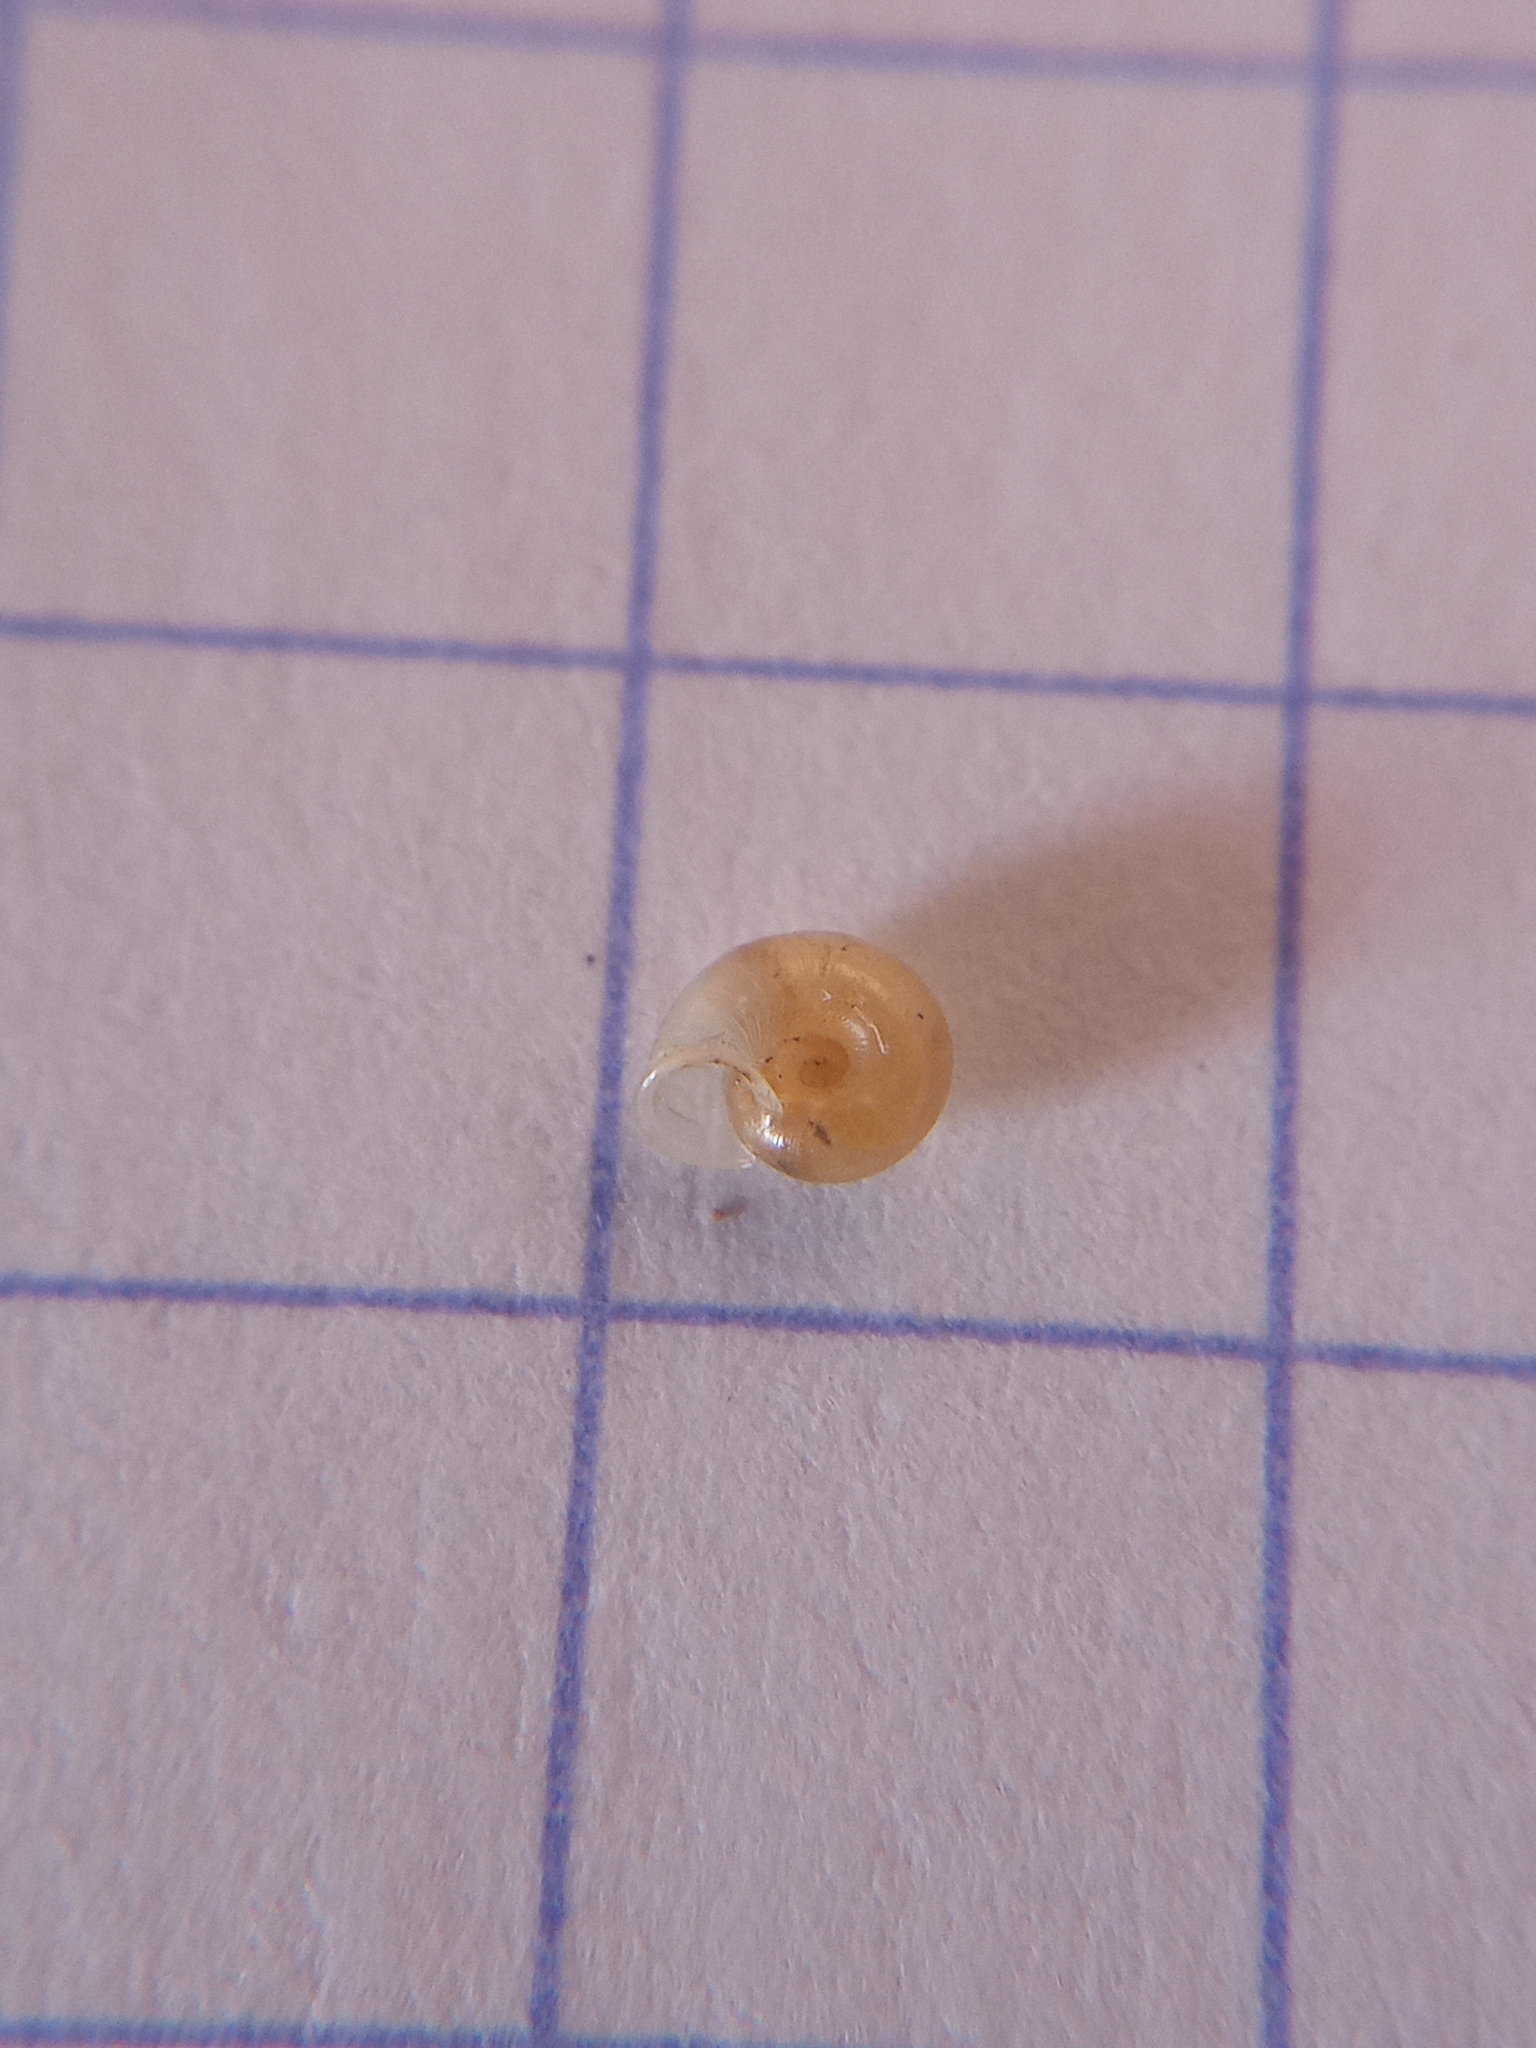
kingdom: Animalia
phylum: Mollusca
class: Gastropoda
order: Stylommatophora
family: Valloniidae
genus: Vallonia
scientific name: Vallonia pulchella
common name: Smooth grass snail
